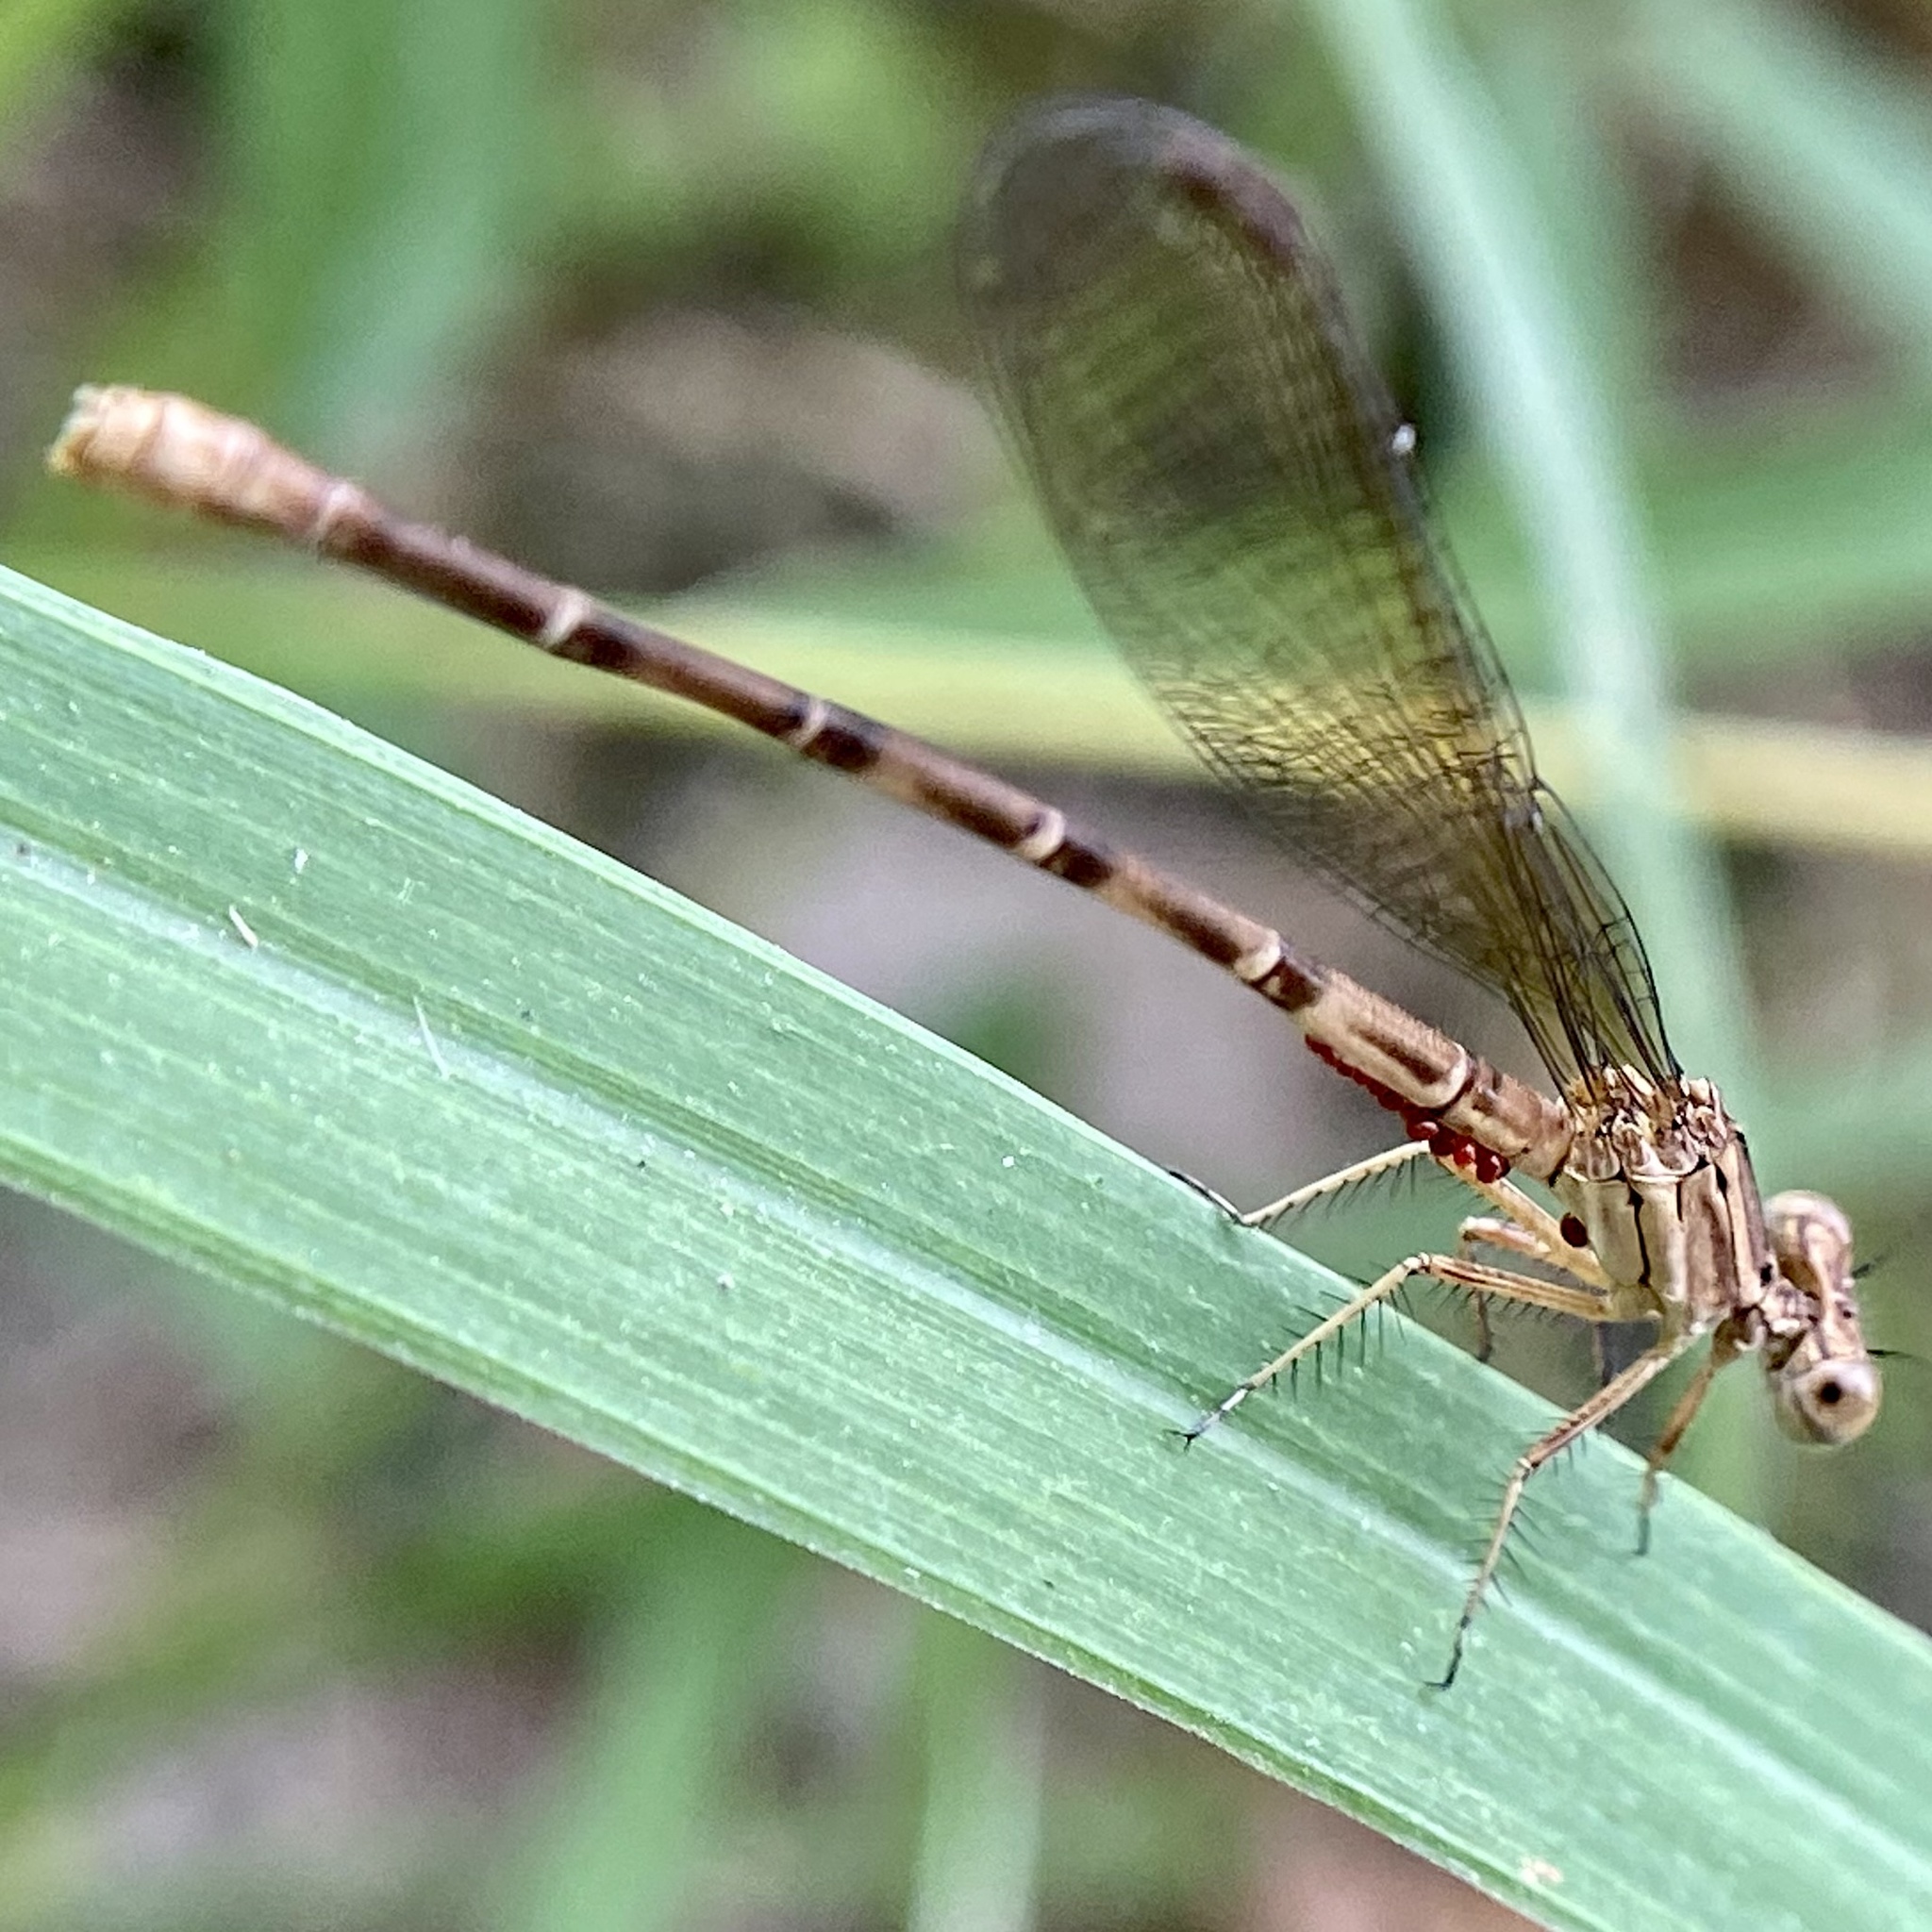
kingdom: Animalia
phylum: Arthropoda
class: Insecta
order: Odonata
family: Coenagrionidae
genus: Argia
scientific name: Argia sedula
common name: Blue-ringed dancer
